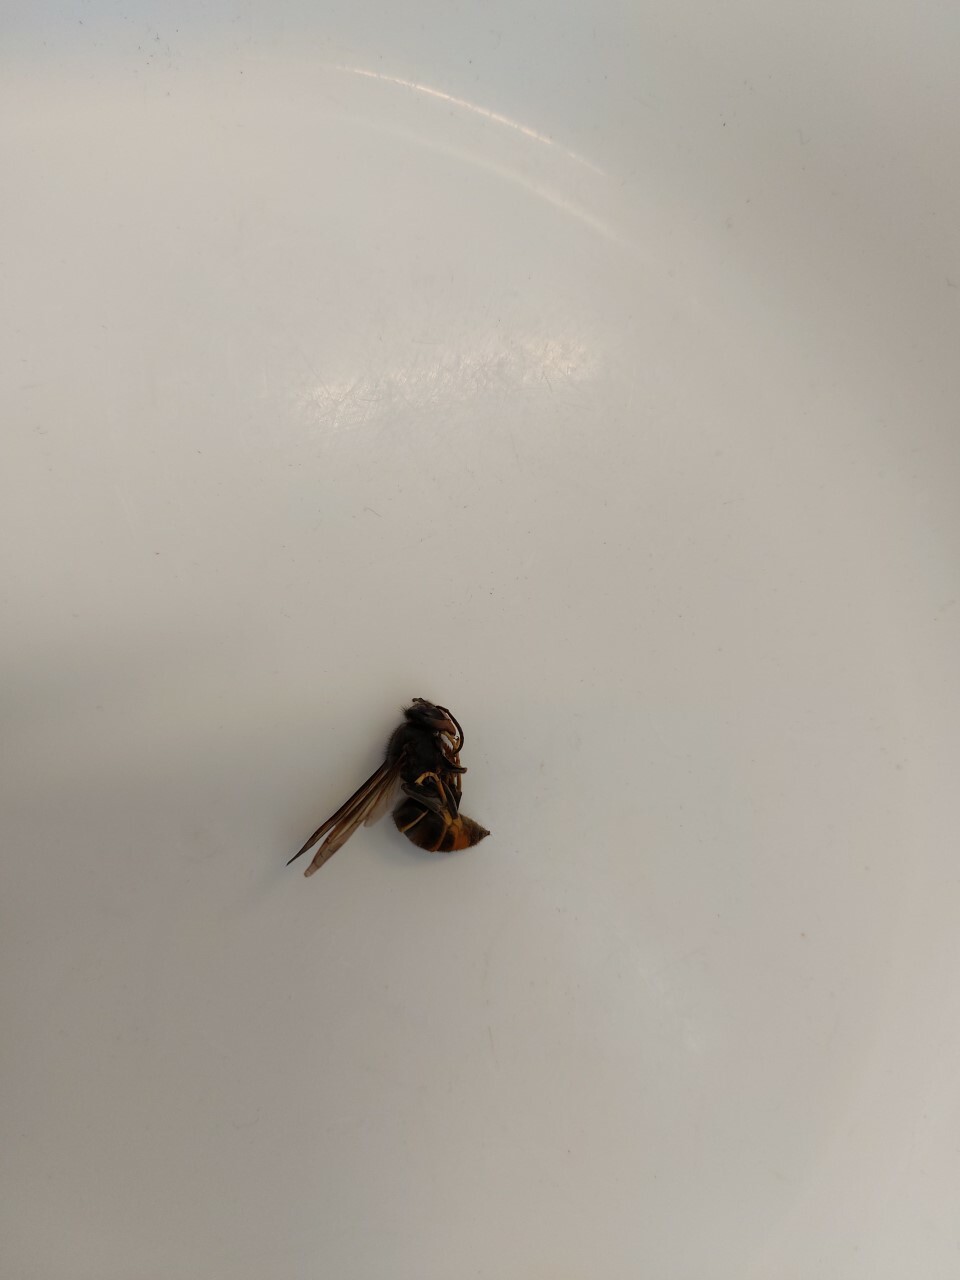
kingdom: Animalia
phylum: Arthropoda
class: Insecta
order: Hymenoptera
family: Vespidae
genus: Vespa
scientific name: Vespa velutina
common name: Asian hornet
